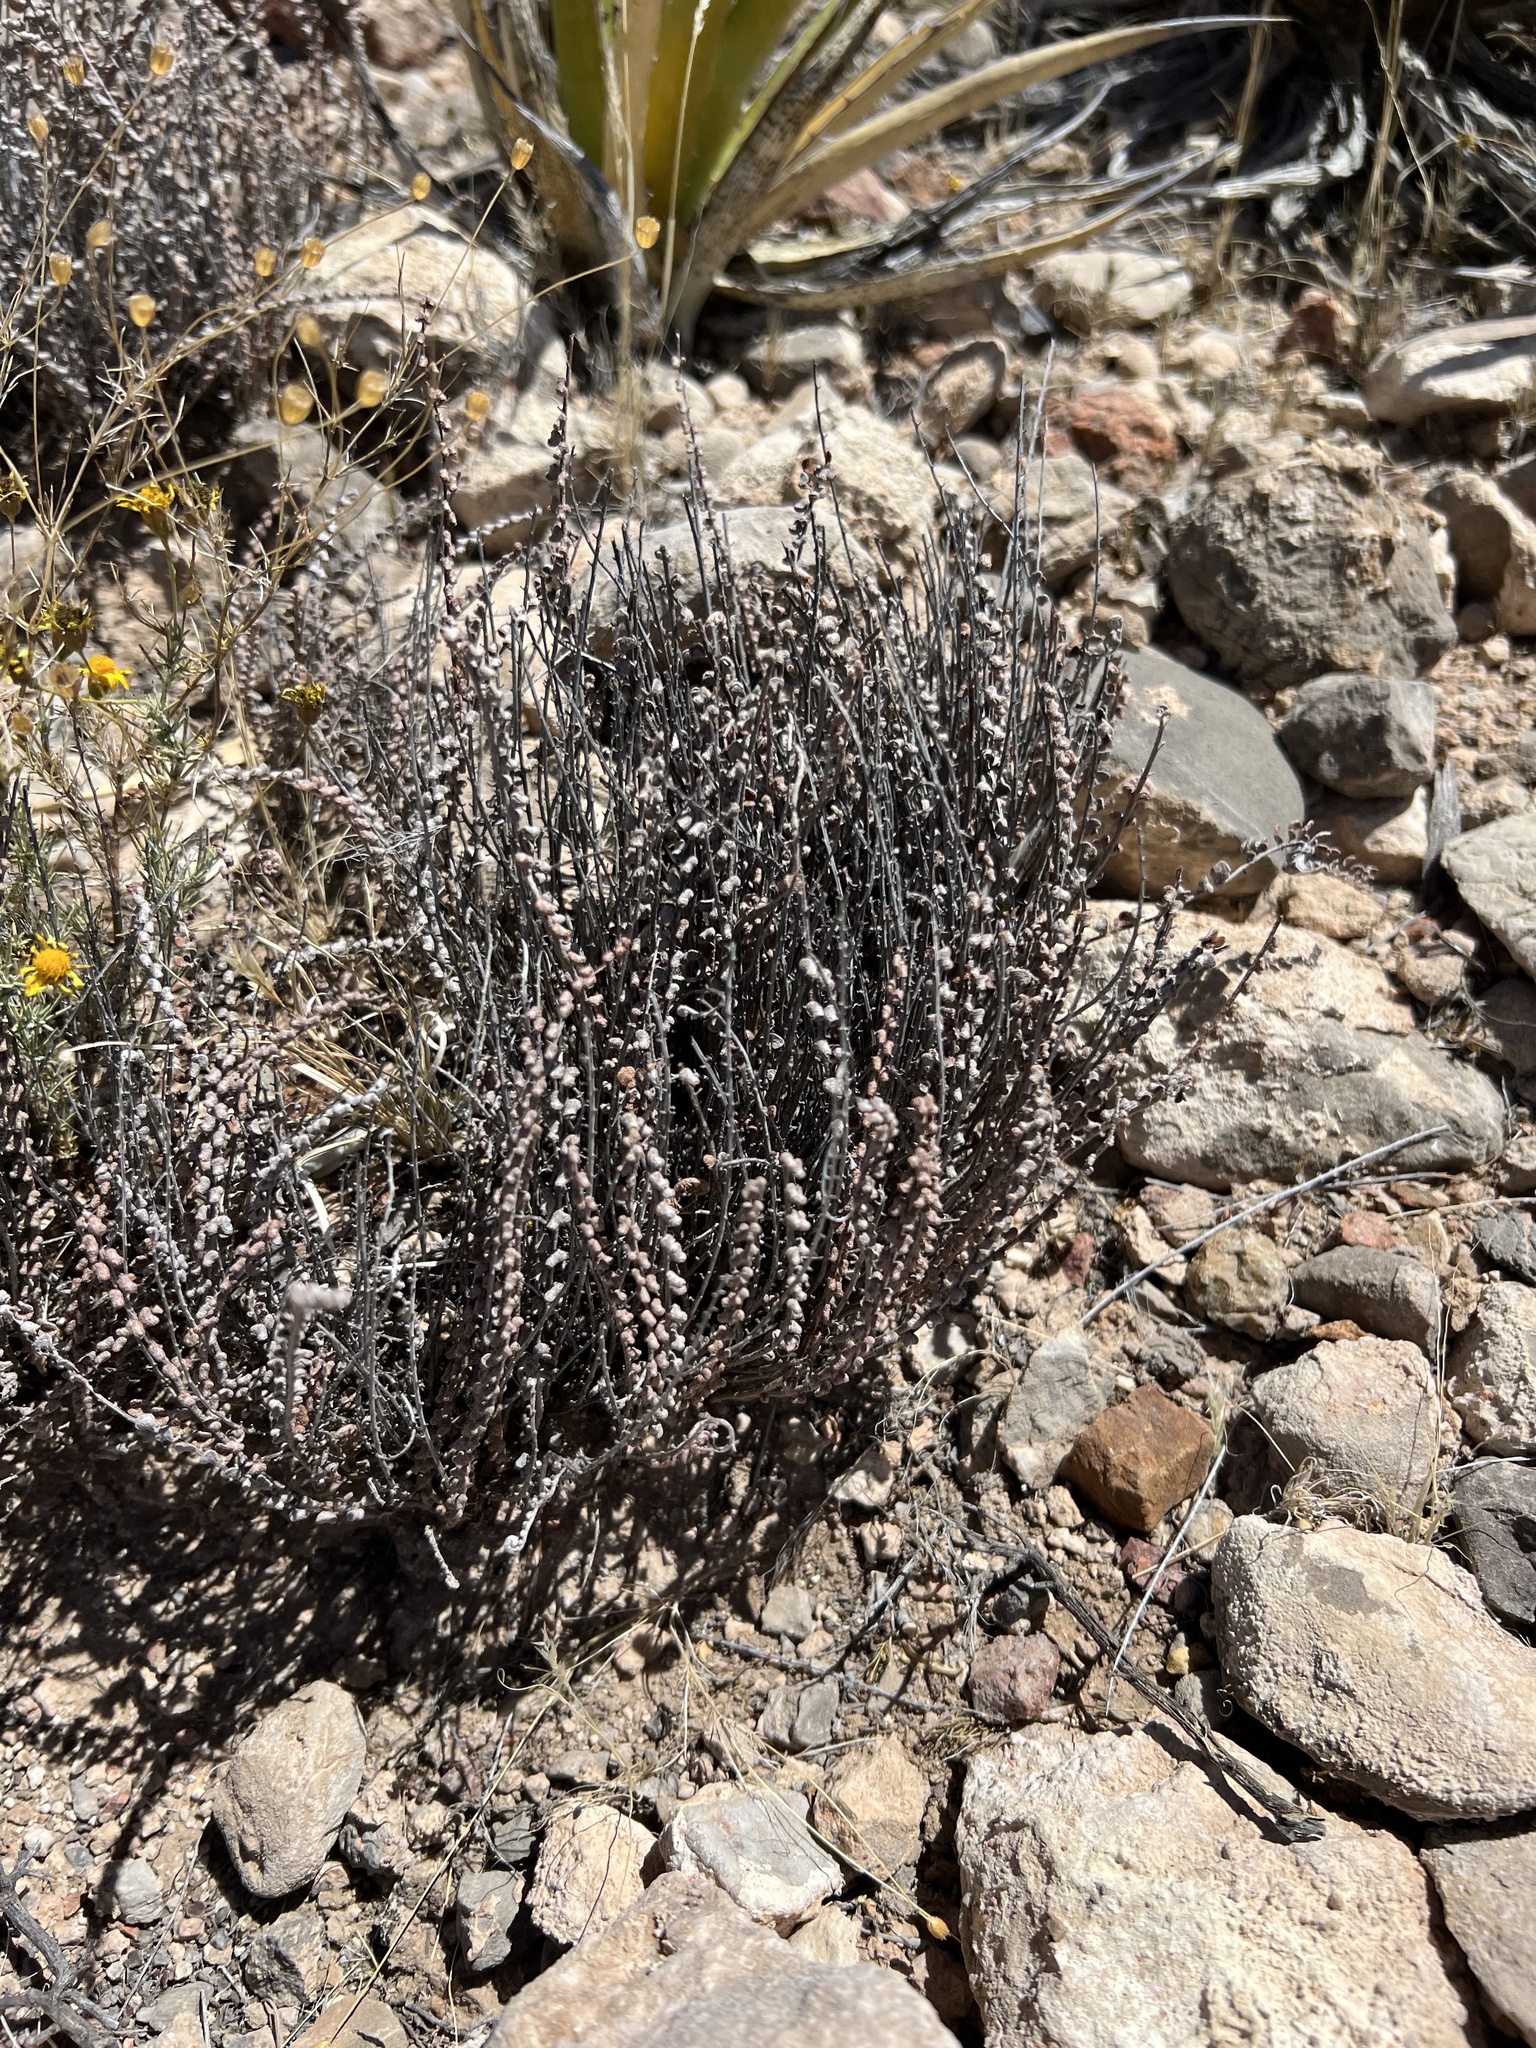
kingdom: Plantae
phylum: Tracheophyta
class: Polypodiopsida
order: Polypodiales
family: Pteridaceae
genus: Astrolepis
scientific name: Astrolepis cochisensis
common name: Scaly cloak fern
